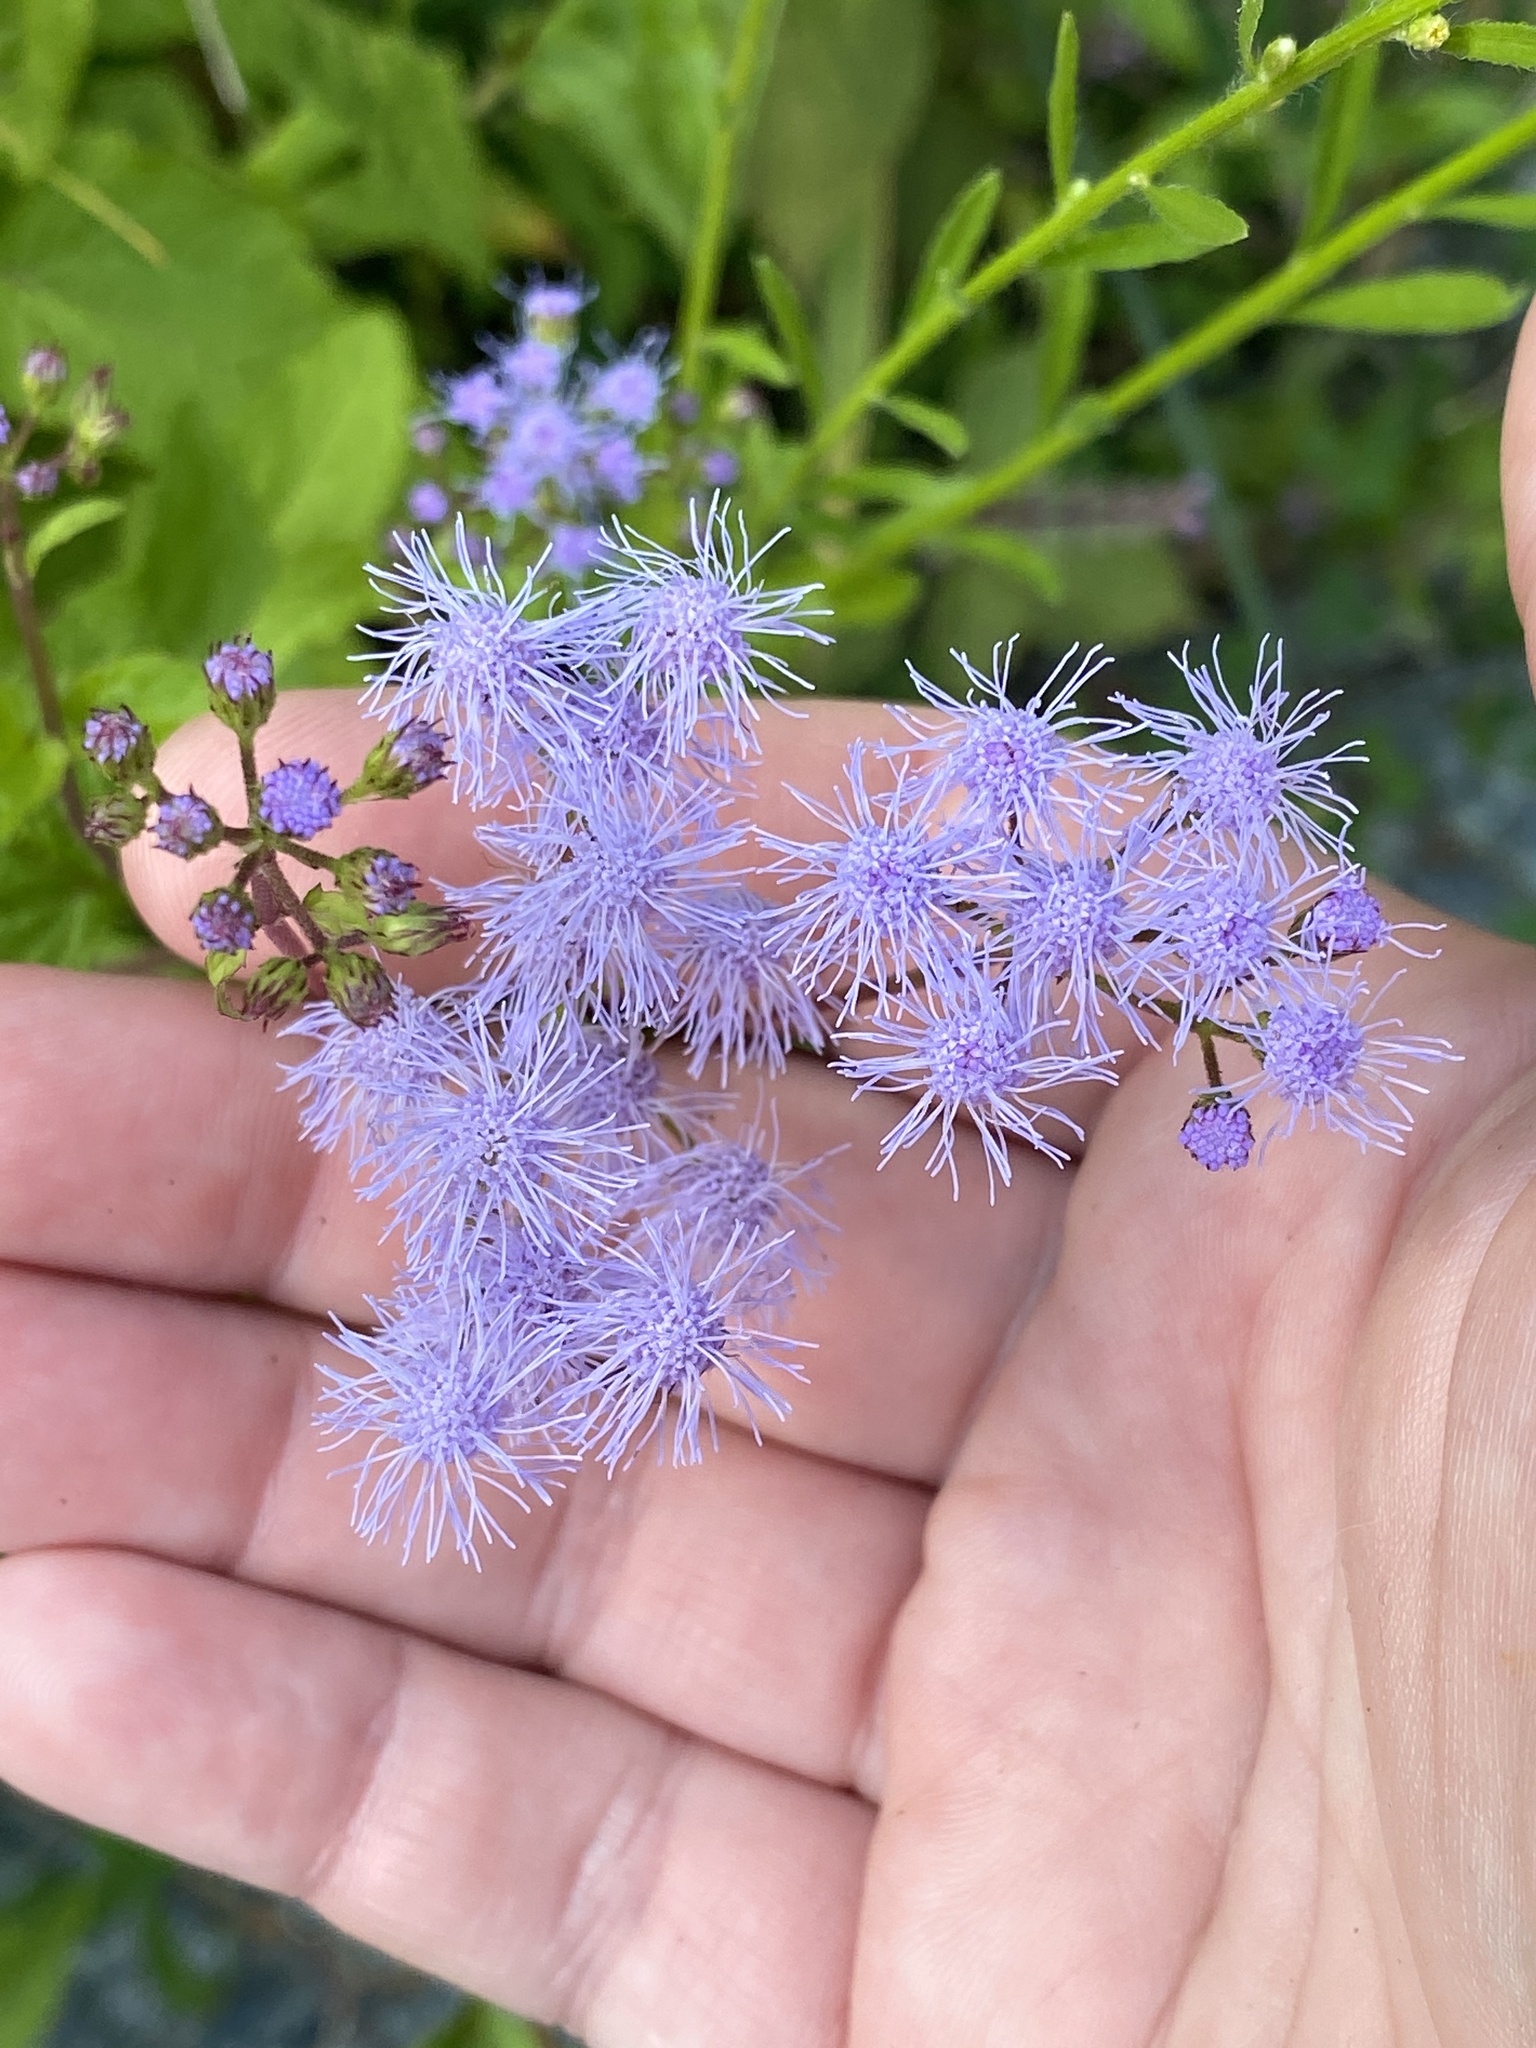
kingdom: Plantae
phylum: Tracheophyta
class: Magnoliopsida
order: Asterales
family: Asteraceae
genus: Conoclinium
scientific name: Conoclinium coelestinum
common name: Blue mistflower
